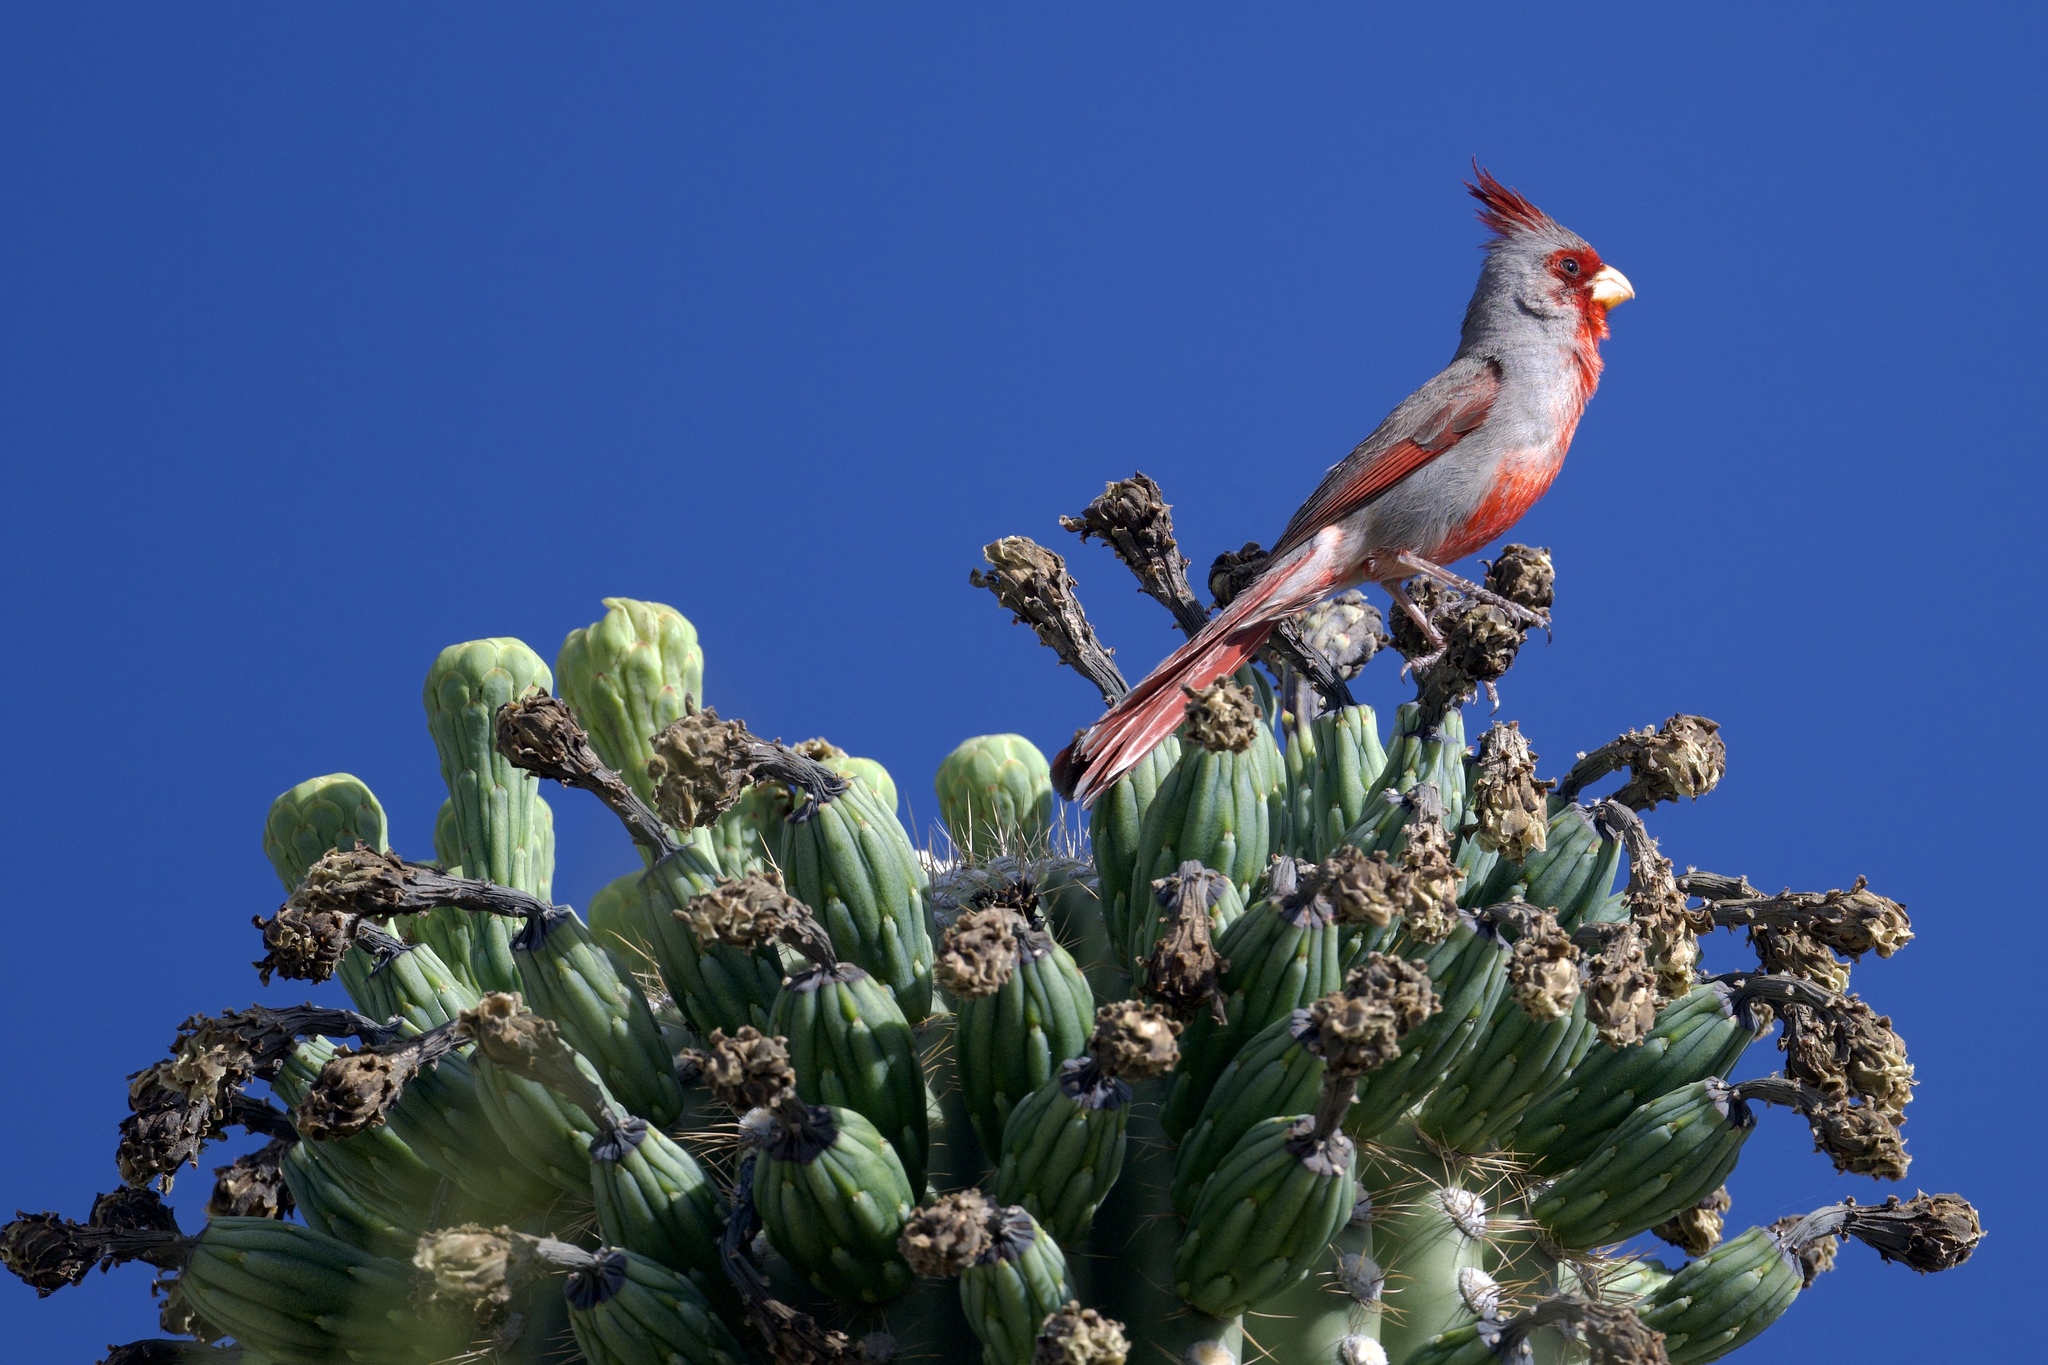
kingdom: Animalia
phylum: Chordata
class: Aves
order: Passeriformes
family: Cardinalidae
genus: Cardinalis
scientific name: Cardinalis sinuatus
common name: Pyrrhuloxia
